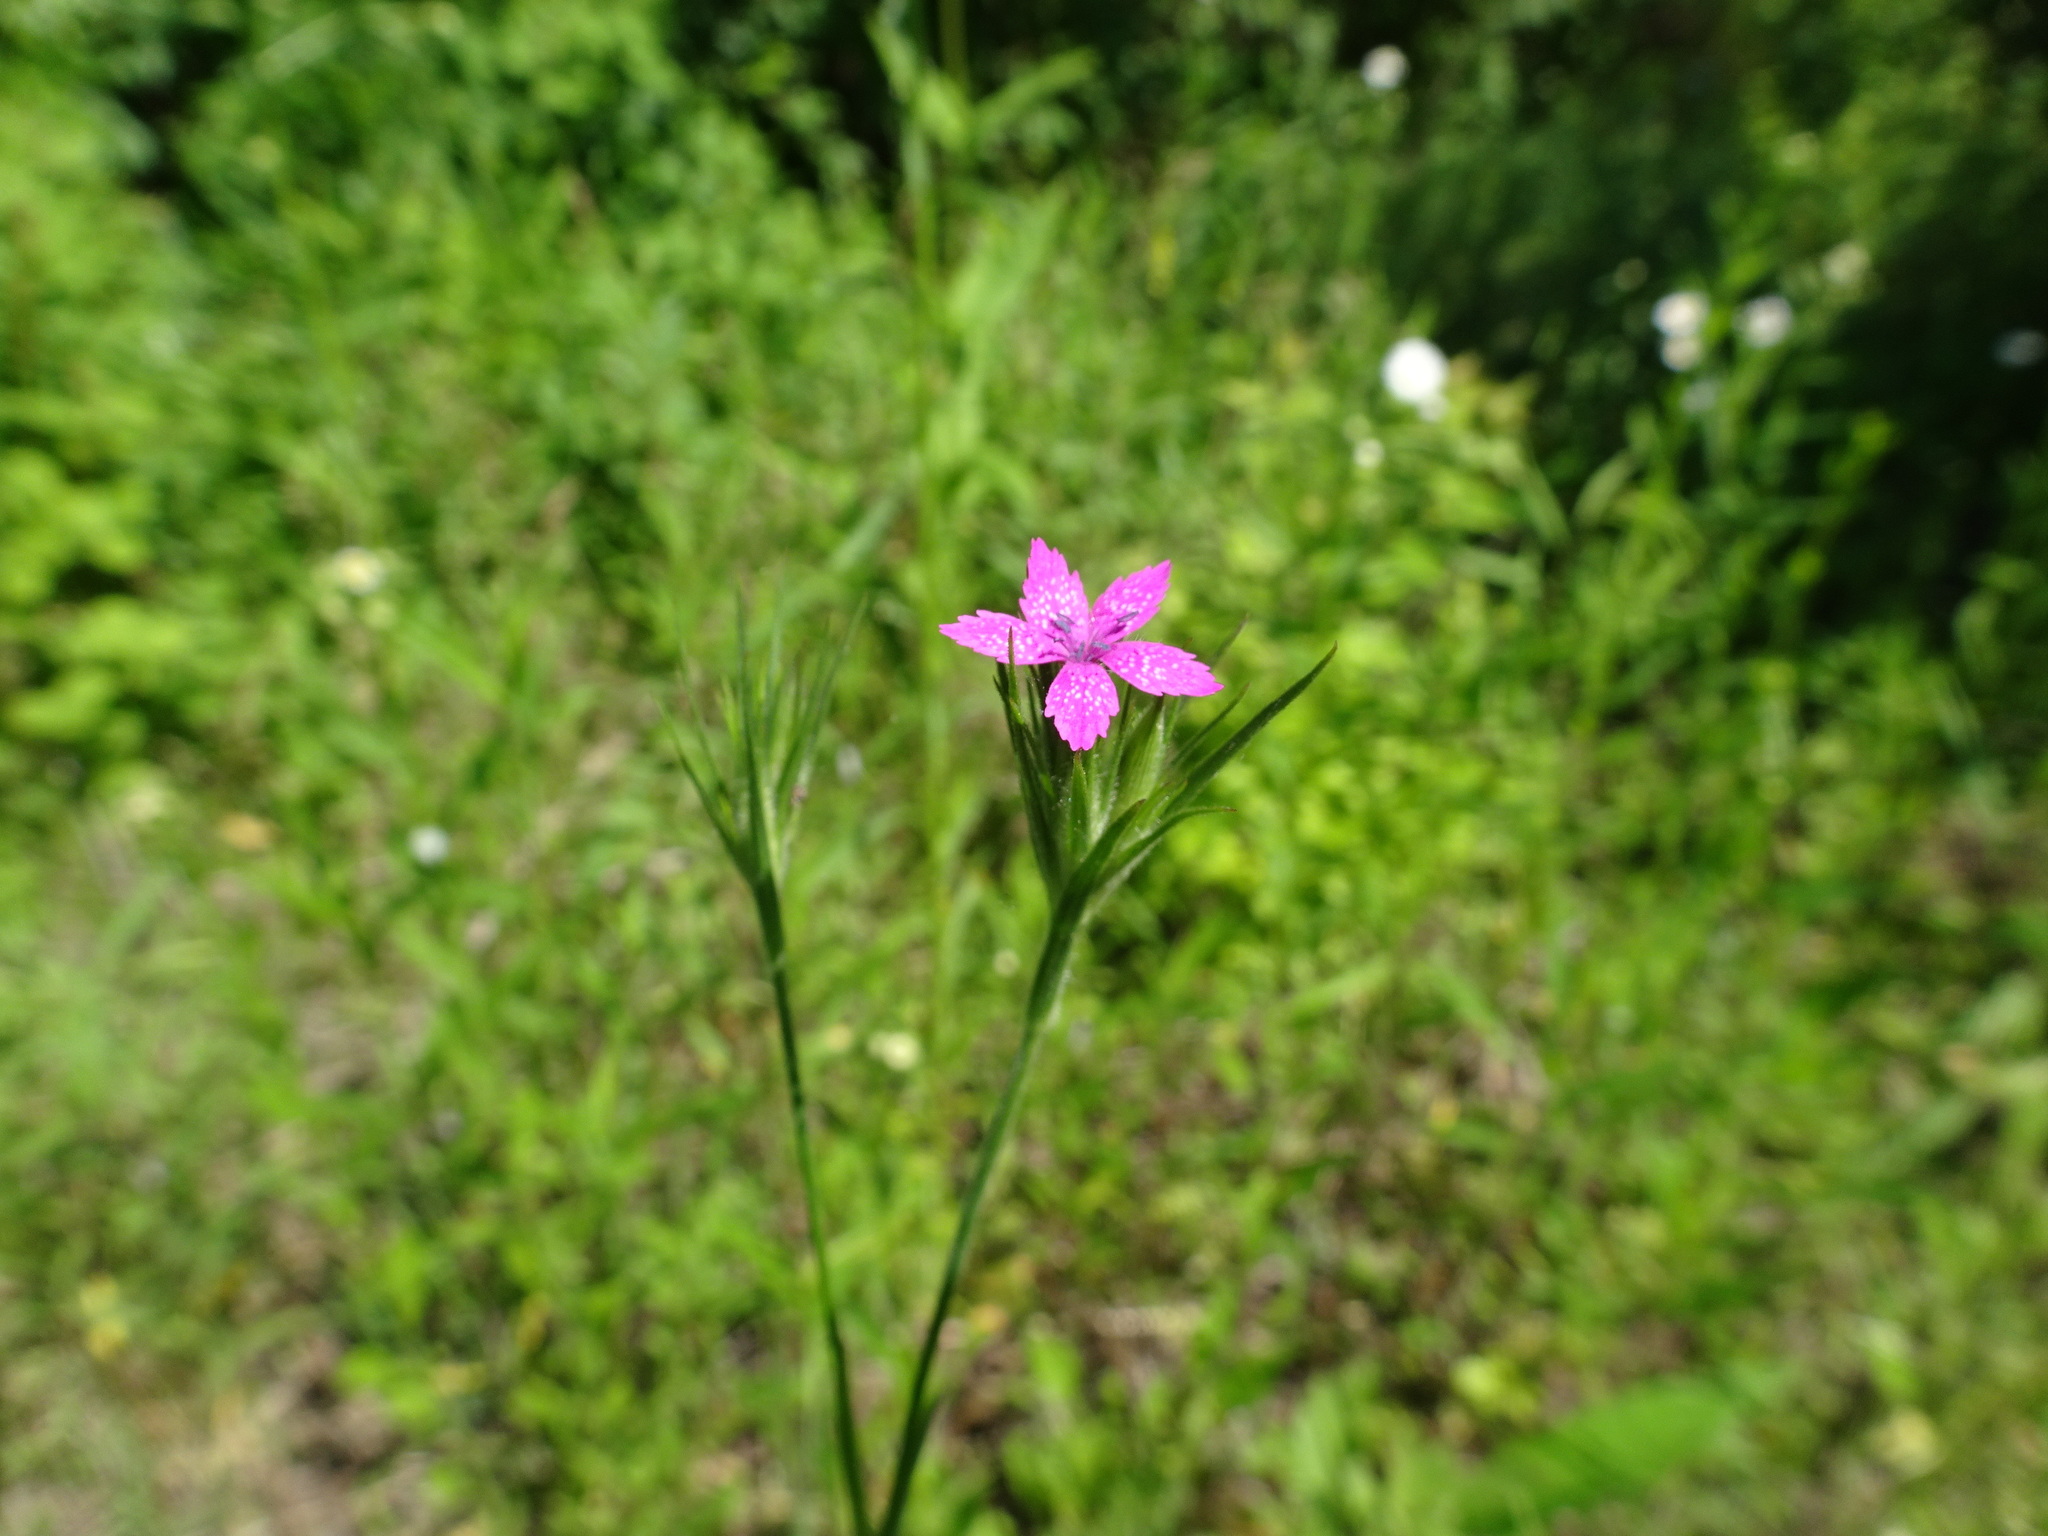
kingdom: Plantae
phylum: Tracheophyta
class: Magnoliopsida
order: Caryophyllales
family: Caryophyllaceae
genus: Dianthus
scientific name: Dianthus armeria
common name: Deptford pink
